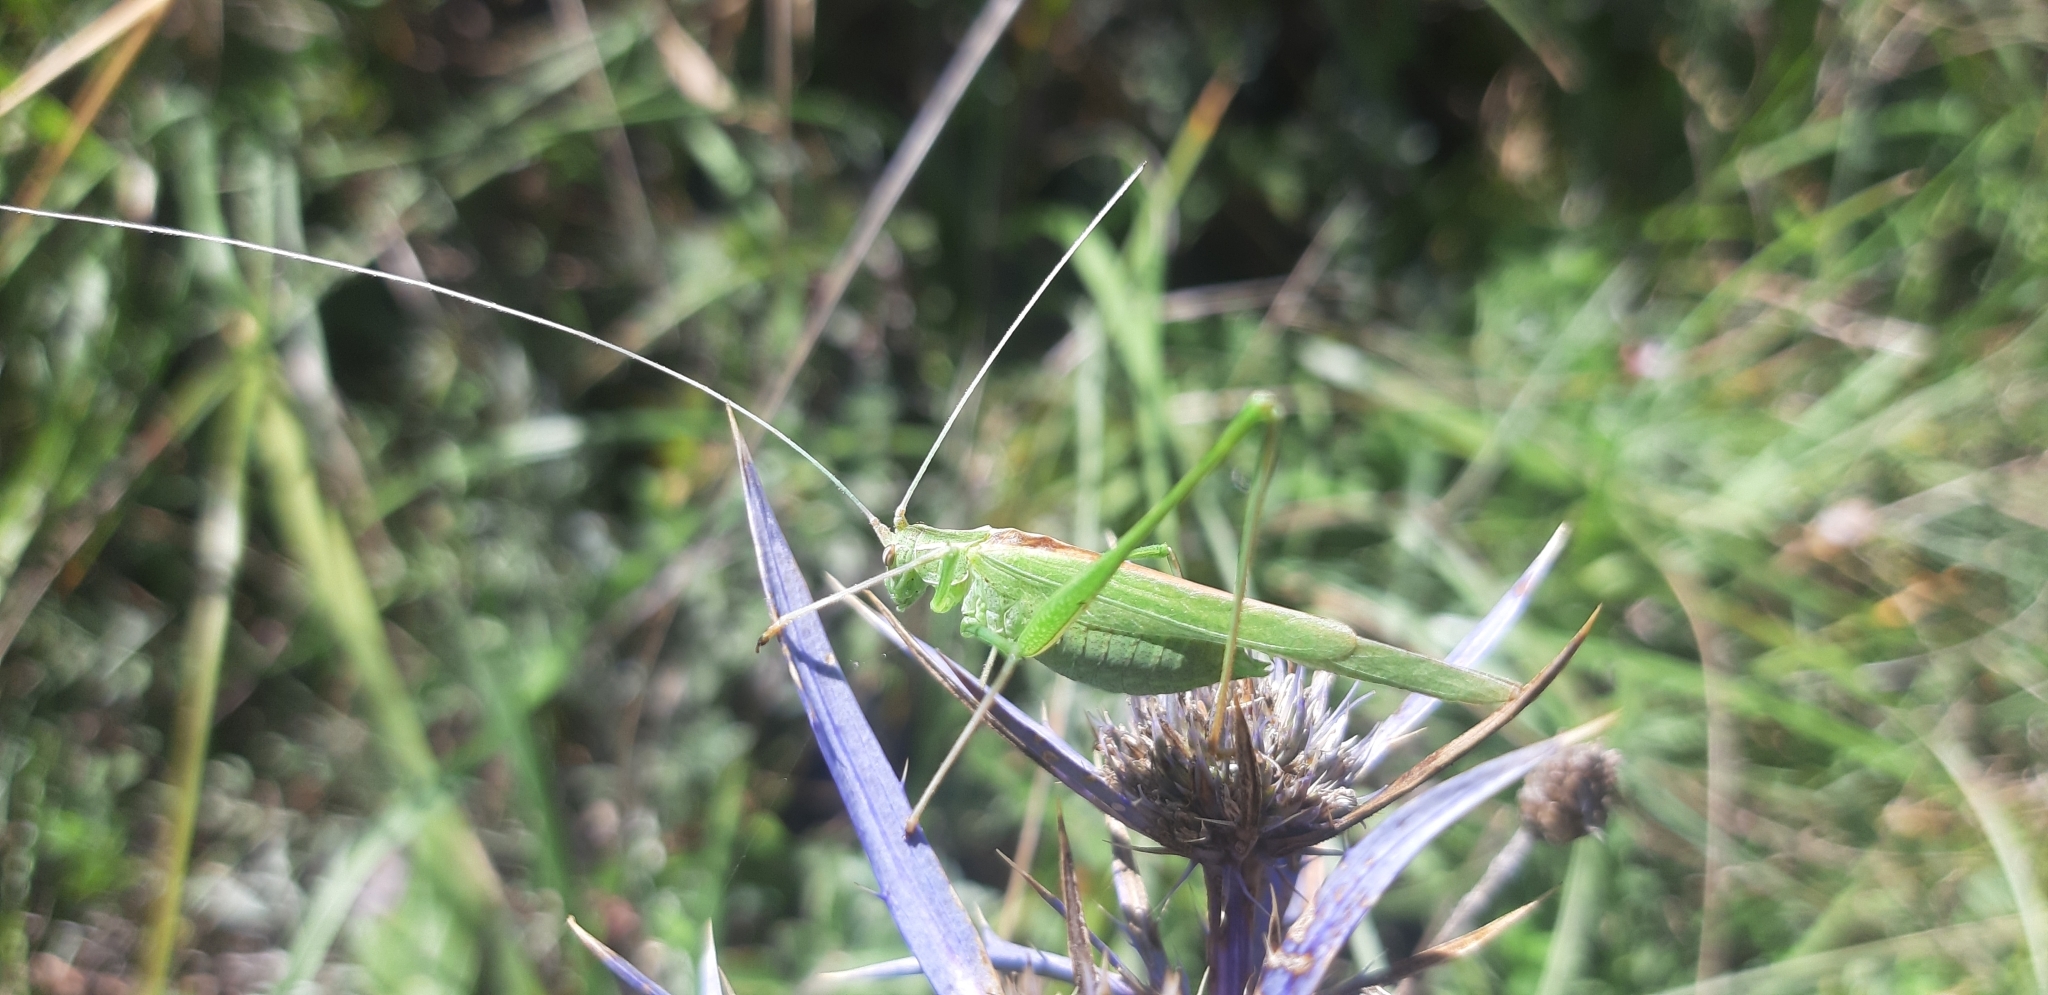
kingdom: Animalia
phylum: Arthropoda
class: Insecta
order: Orthoptera
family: Tettigoniidae
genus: Tylopsis
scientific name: Tylopsis lilifolia
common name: Lily bush-cricket
